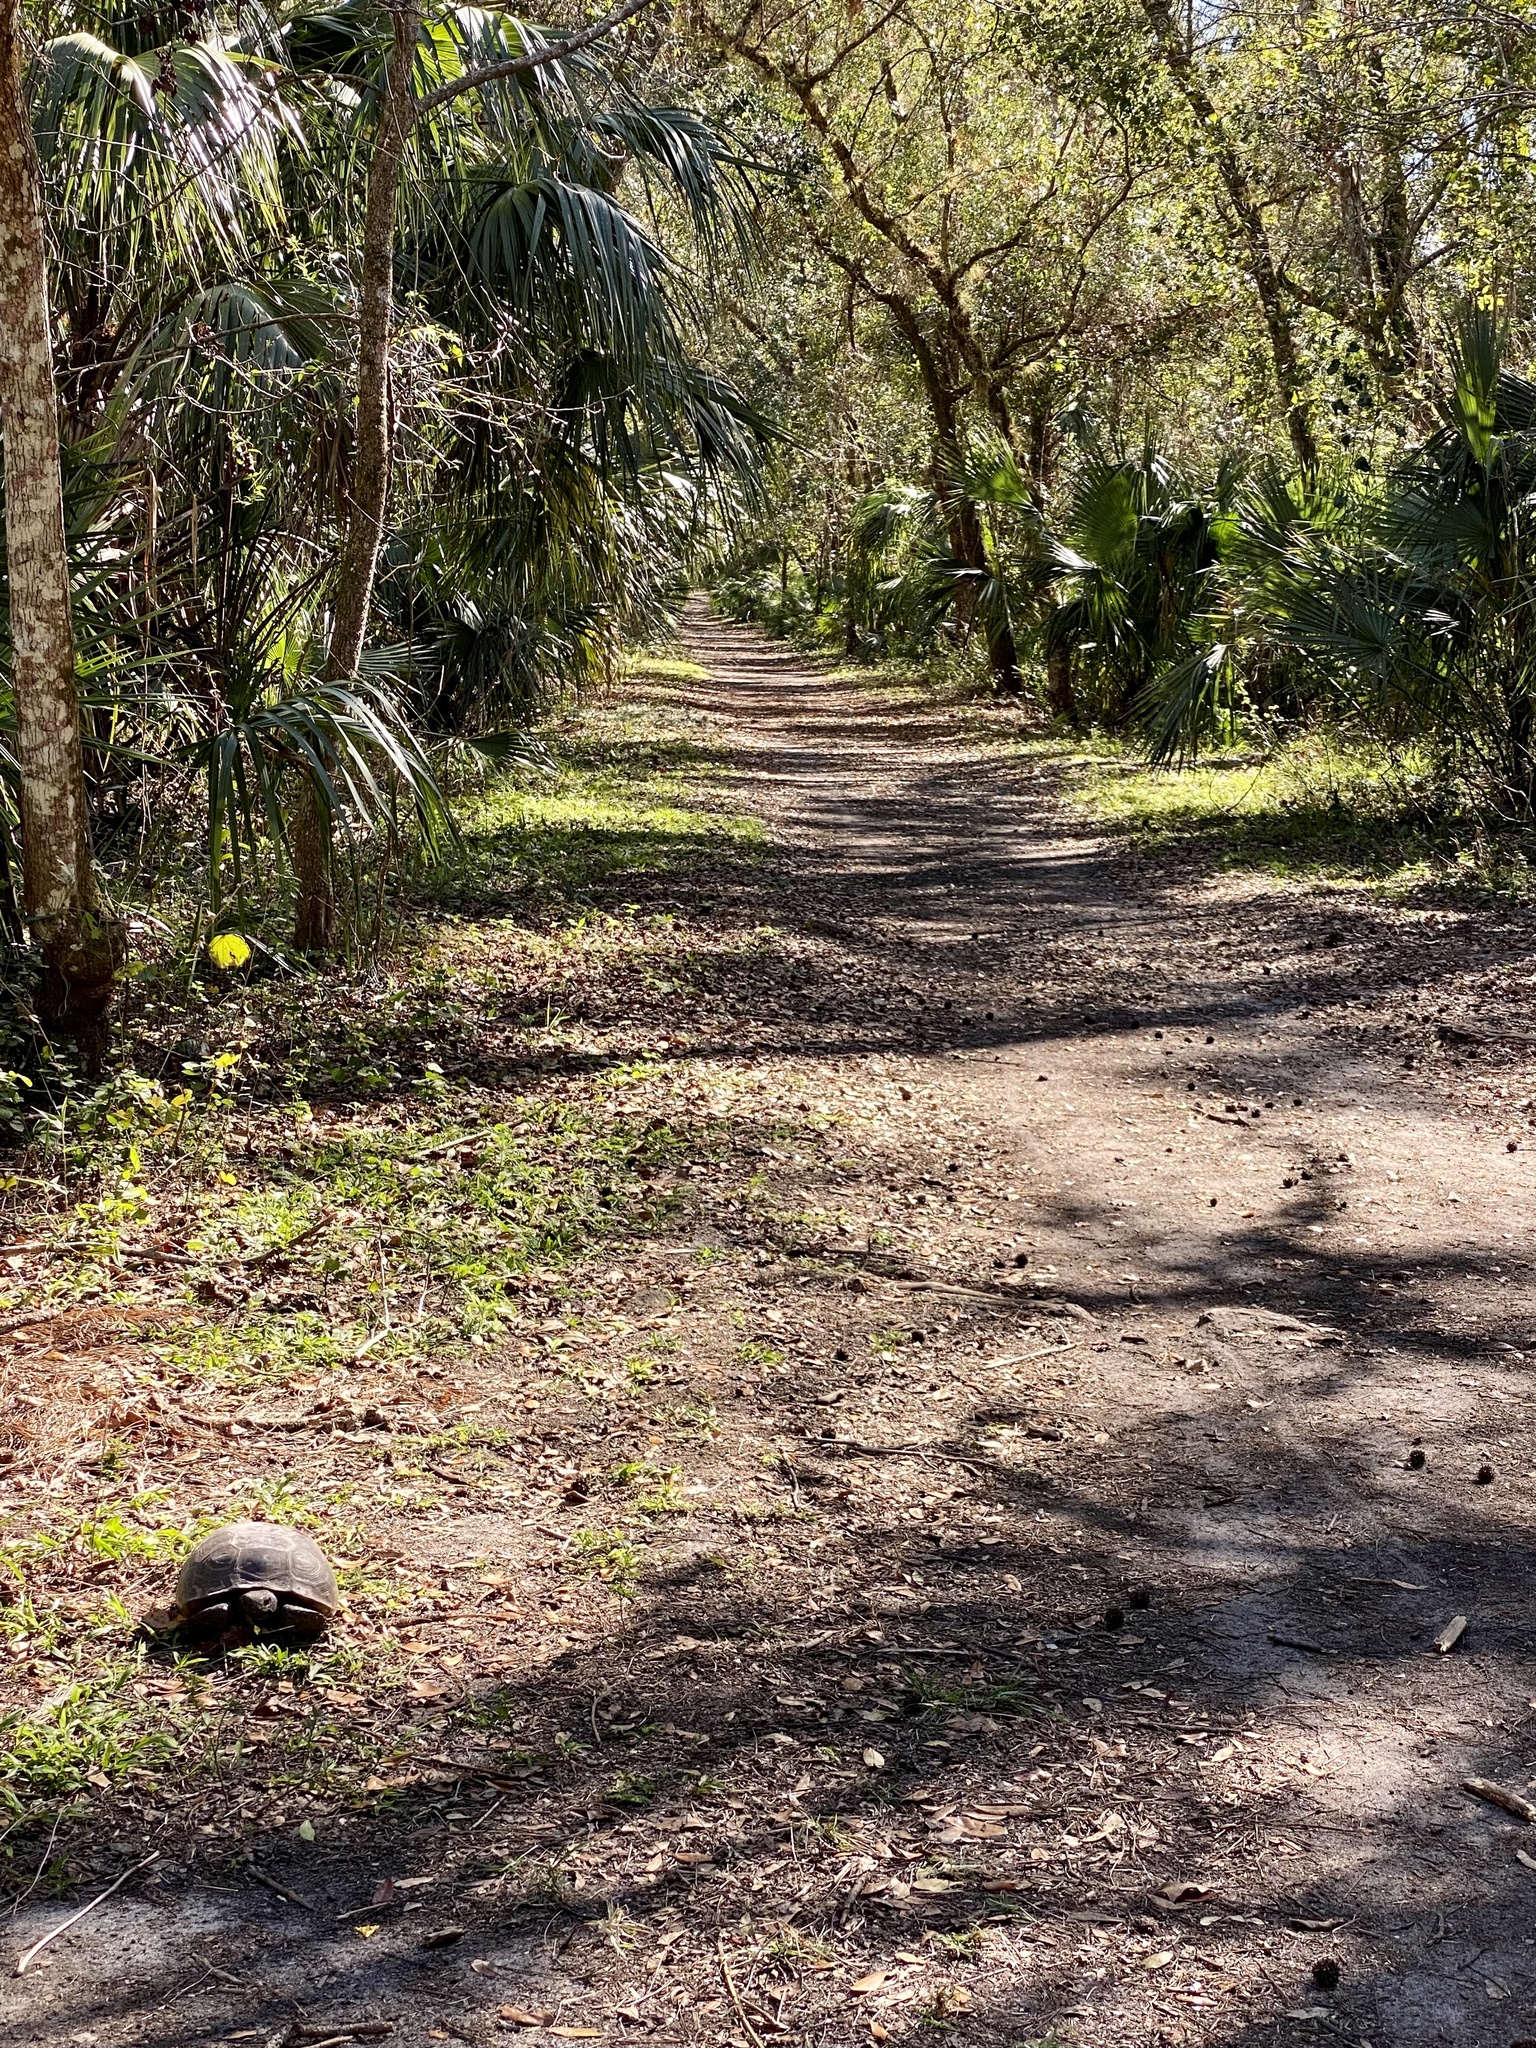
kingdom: Animalia
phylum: Chordata
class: Testudines
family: Testudinidae
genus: Gopherus
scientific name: Gopherus polyphemus
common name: Florida gopher tortoise
